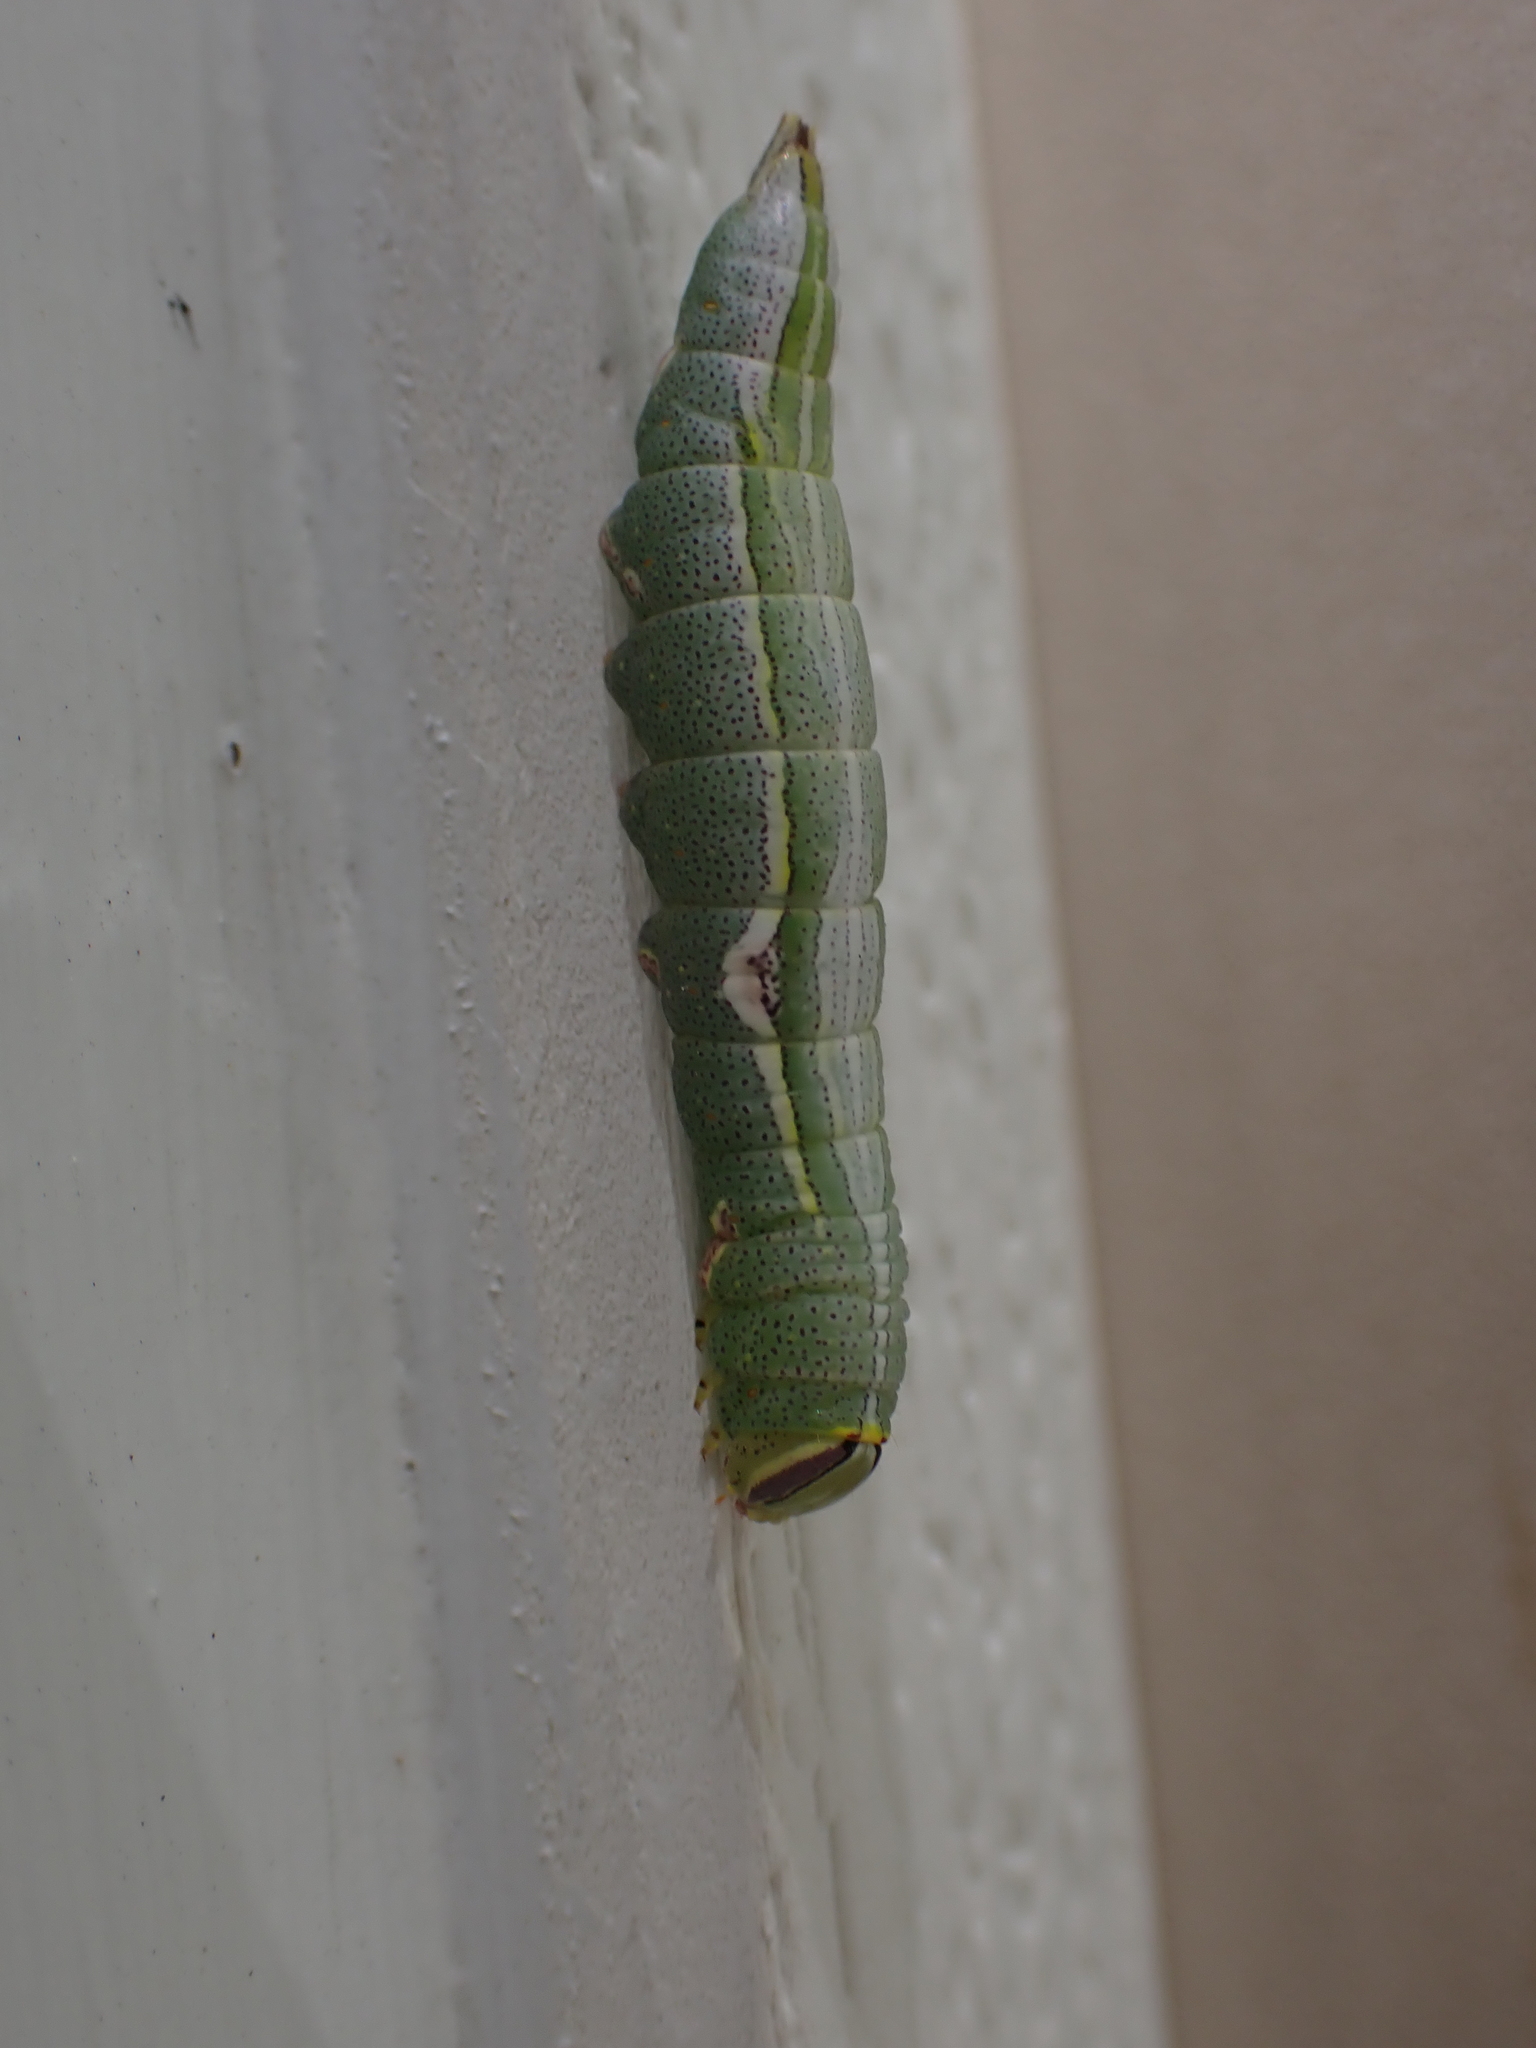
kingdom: Animalia
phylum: Arthropoda
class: Insecta
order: Lepidoptera
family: Notodontidae
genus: Disphragis
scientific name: Disphragis Cecrita guttivitta
